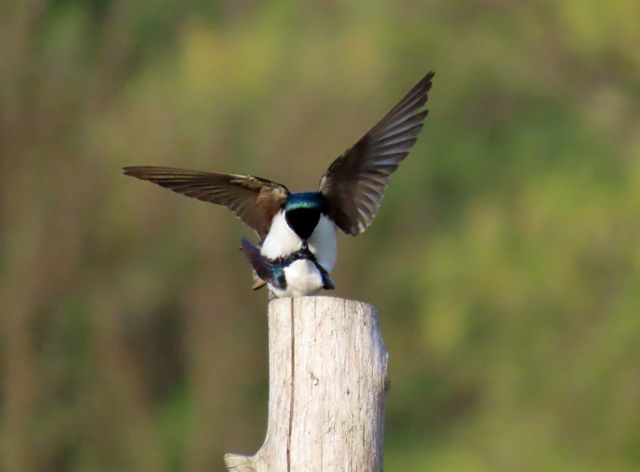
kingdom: Animalia
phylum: Chordata
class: Aves
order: Passeriformes
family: Hirundinidae
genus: Tachycineta
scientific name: Tachycineta bicolor
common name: Tree swallow
